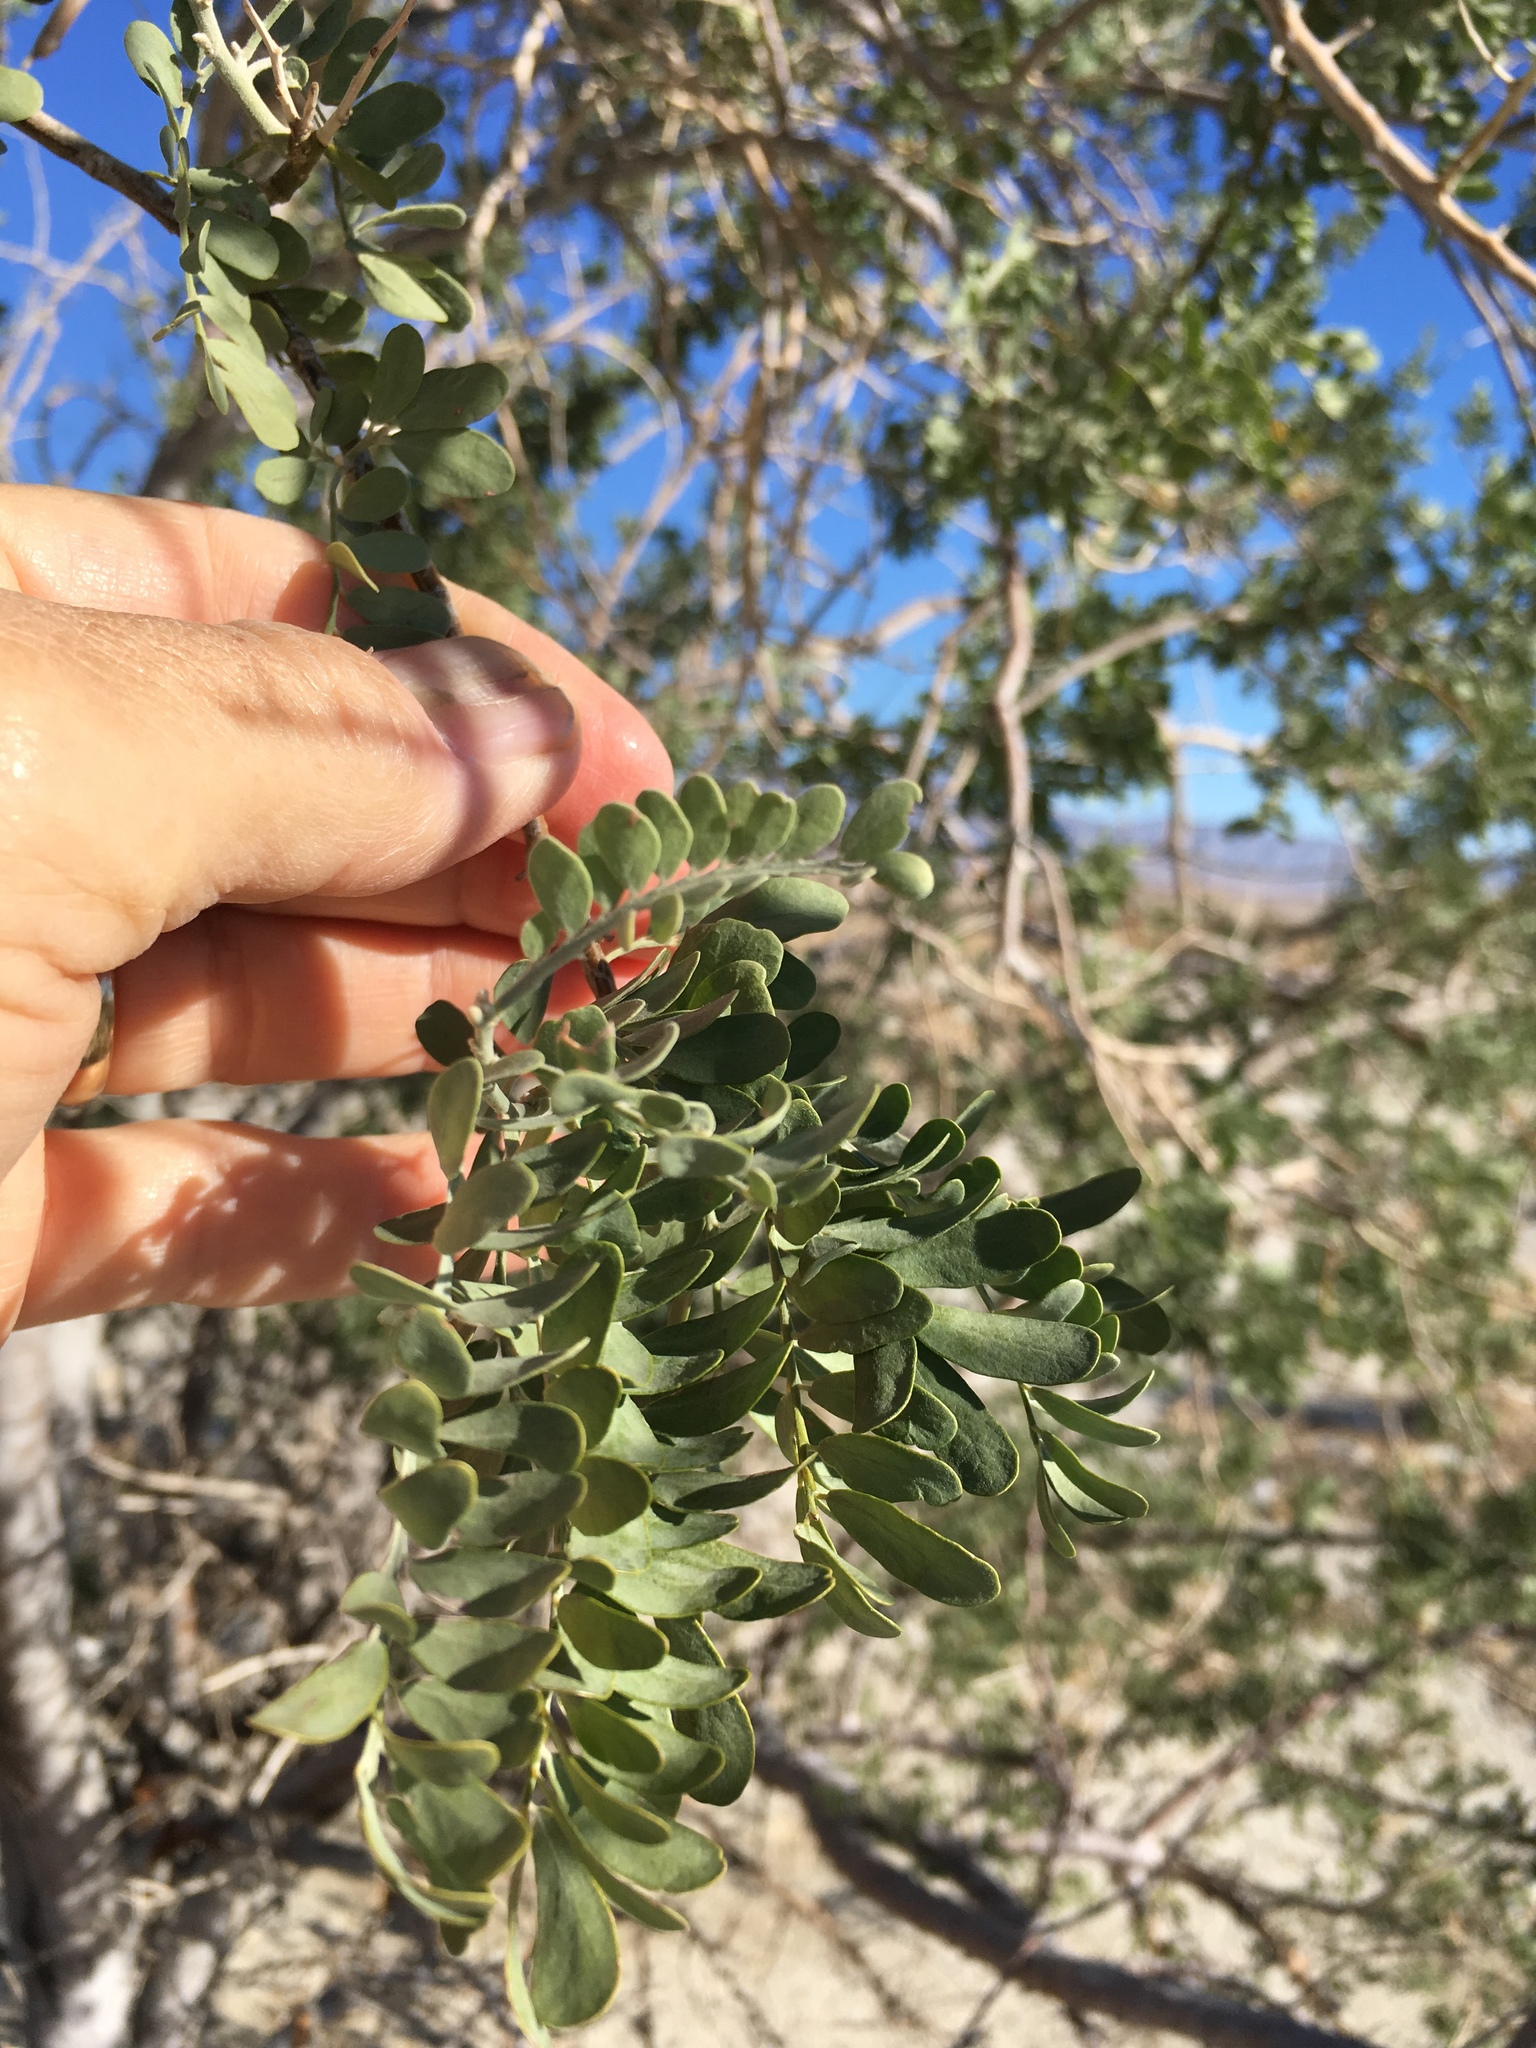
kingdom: Plantae
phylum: Tracheophyta
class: Magnoliopsida
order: Fabales
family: Fabaceae
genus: Olneya
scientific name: Olneya tesota
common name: Desert ironwood
